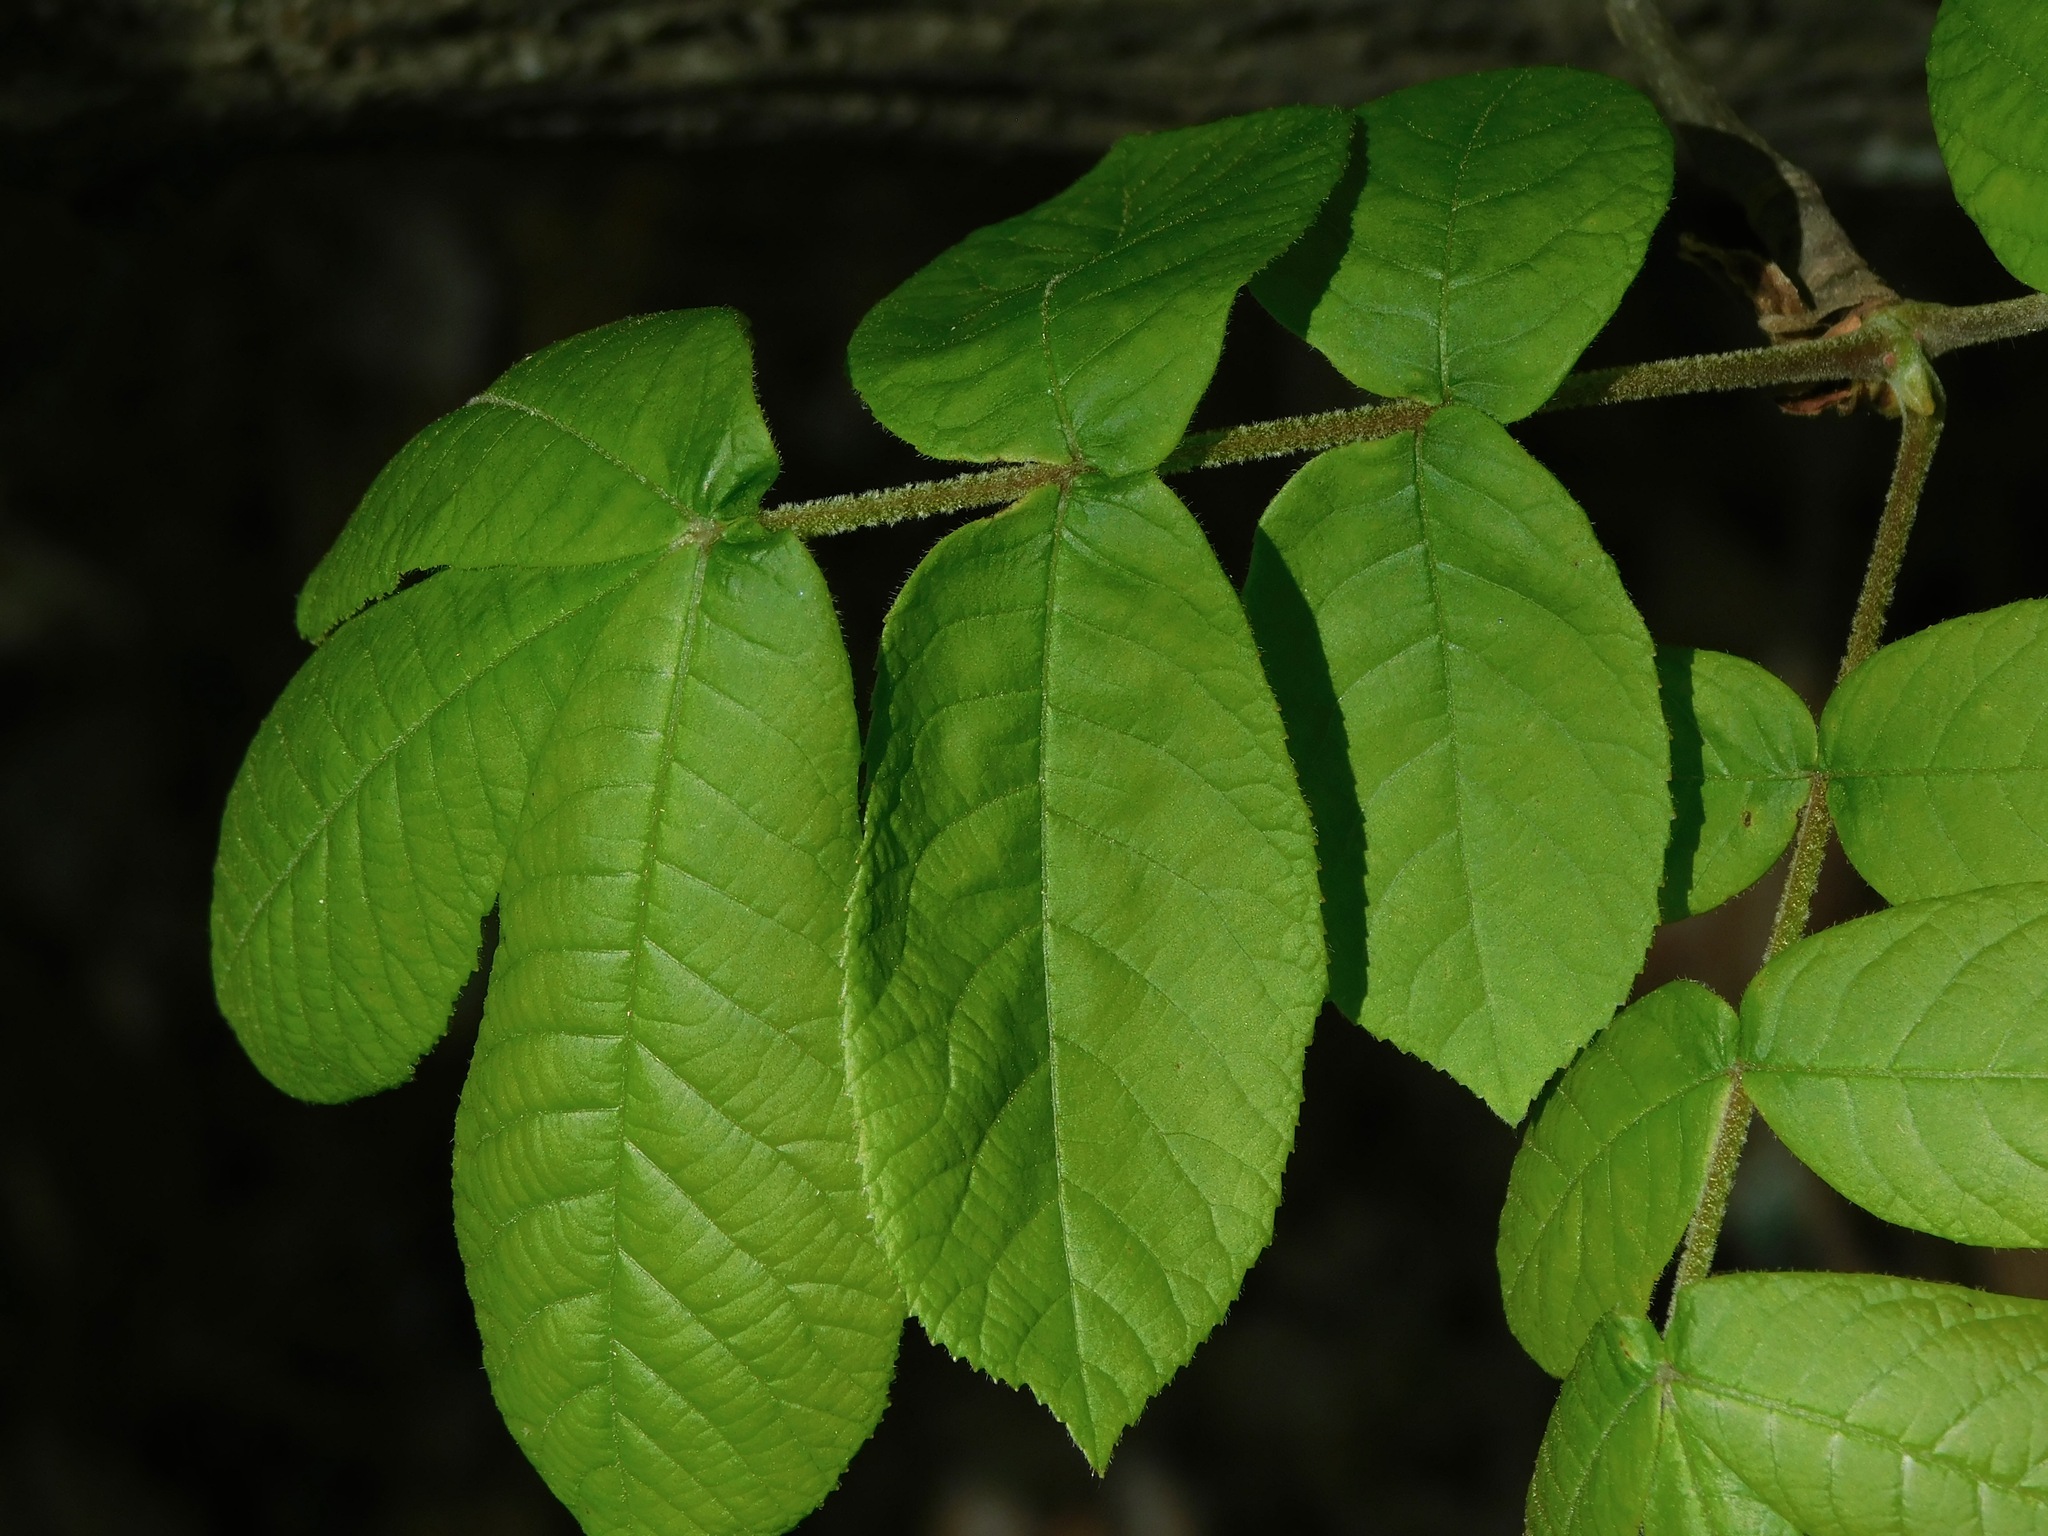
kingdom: Plantae
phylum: Tracheophyta
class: Magnoliopsida
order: Fagales
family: Juglandaceae
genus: Carya
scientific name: Carya alba
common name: Mockernut hickory
